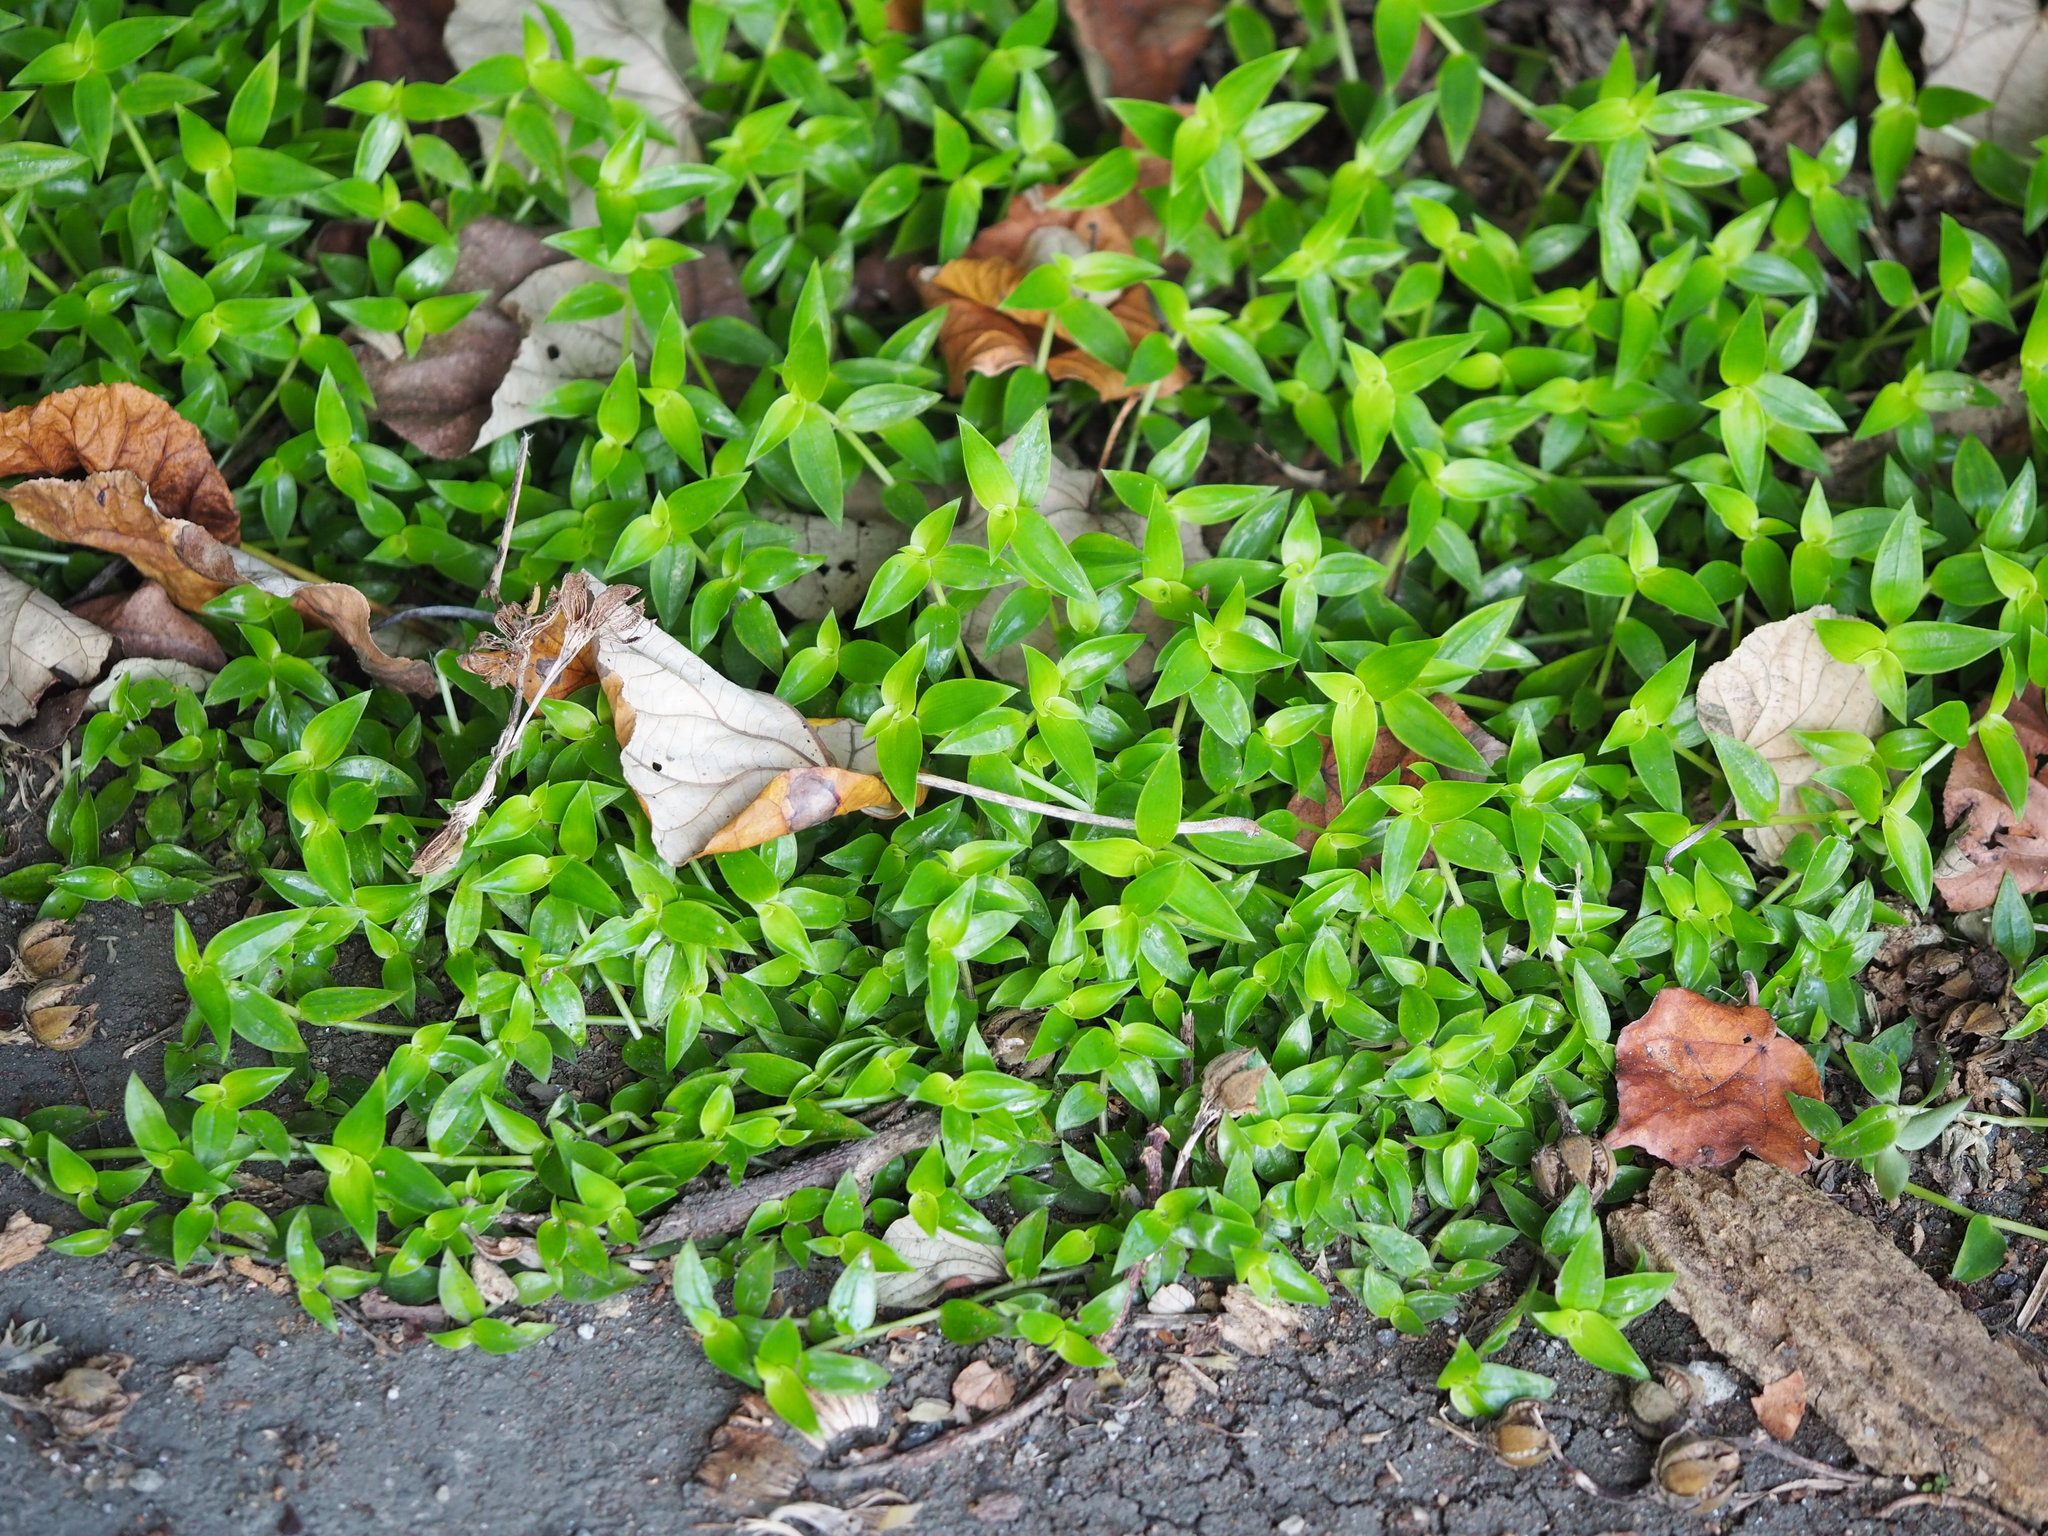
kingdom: Plantae
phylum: Tracheophyta
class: Liliopsida
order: Commelinales
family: Commelinaceae
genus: Callisia
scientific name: Callisia repens
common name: Creeping inchplant
